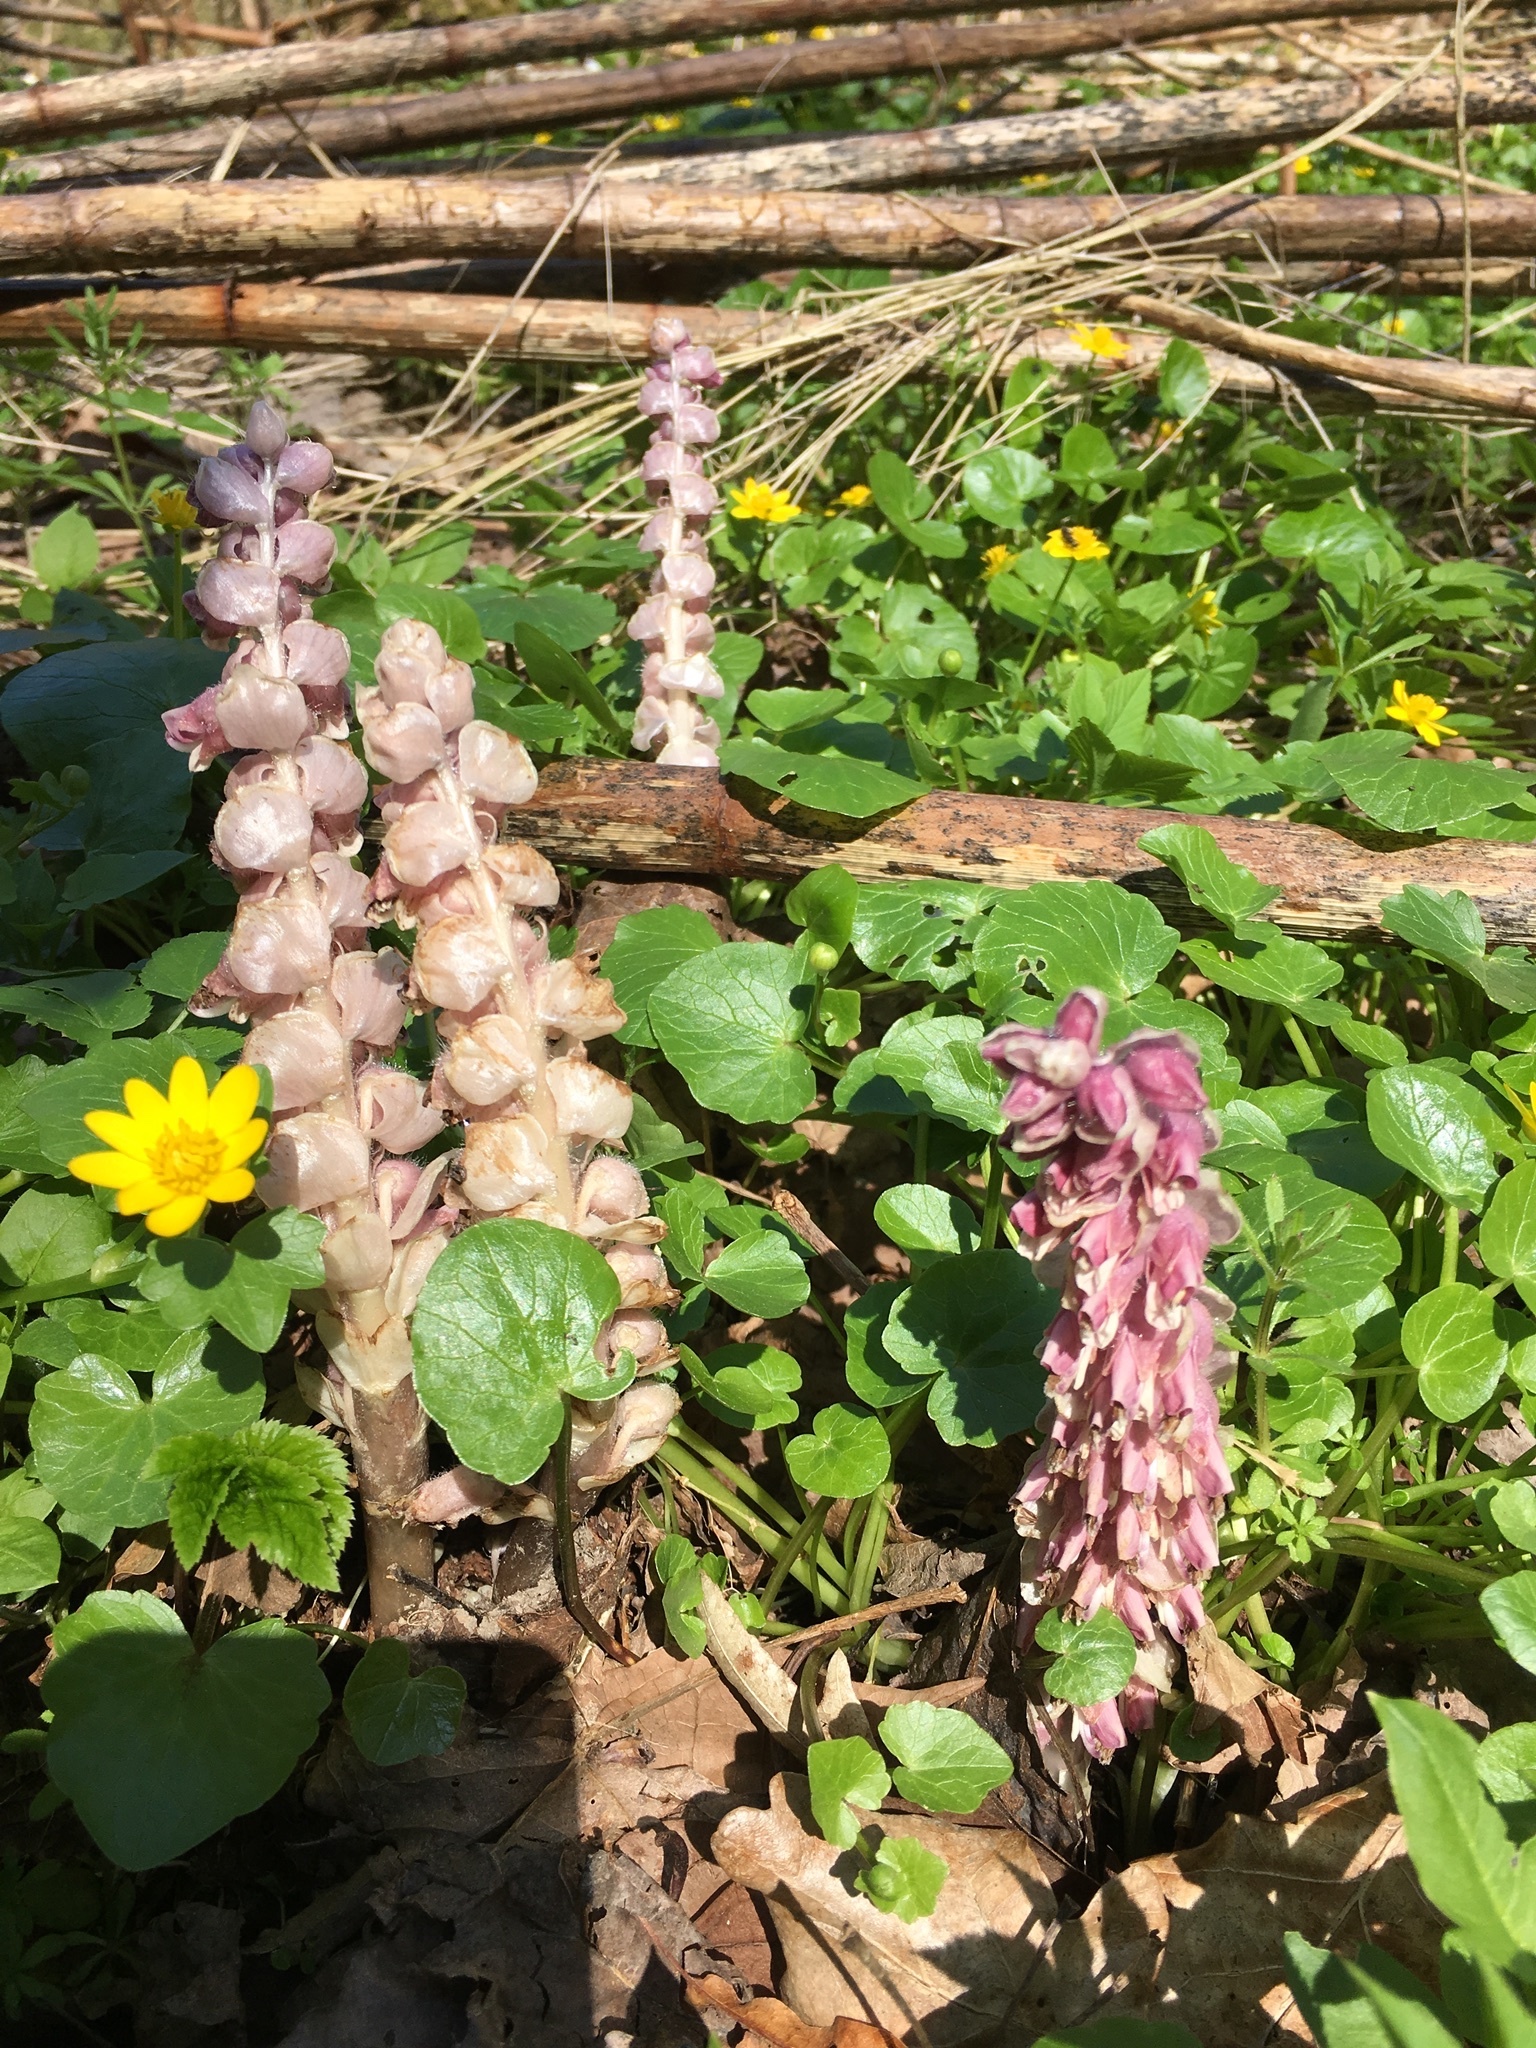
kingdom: Plantae
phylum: Tracheophyta
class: Magnoliopsida
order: Lamiales
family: Orobanchaceae
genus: Lathraea
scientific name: Lathraea squamaria
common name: Toothwort
